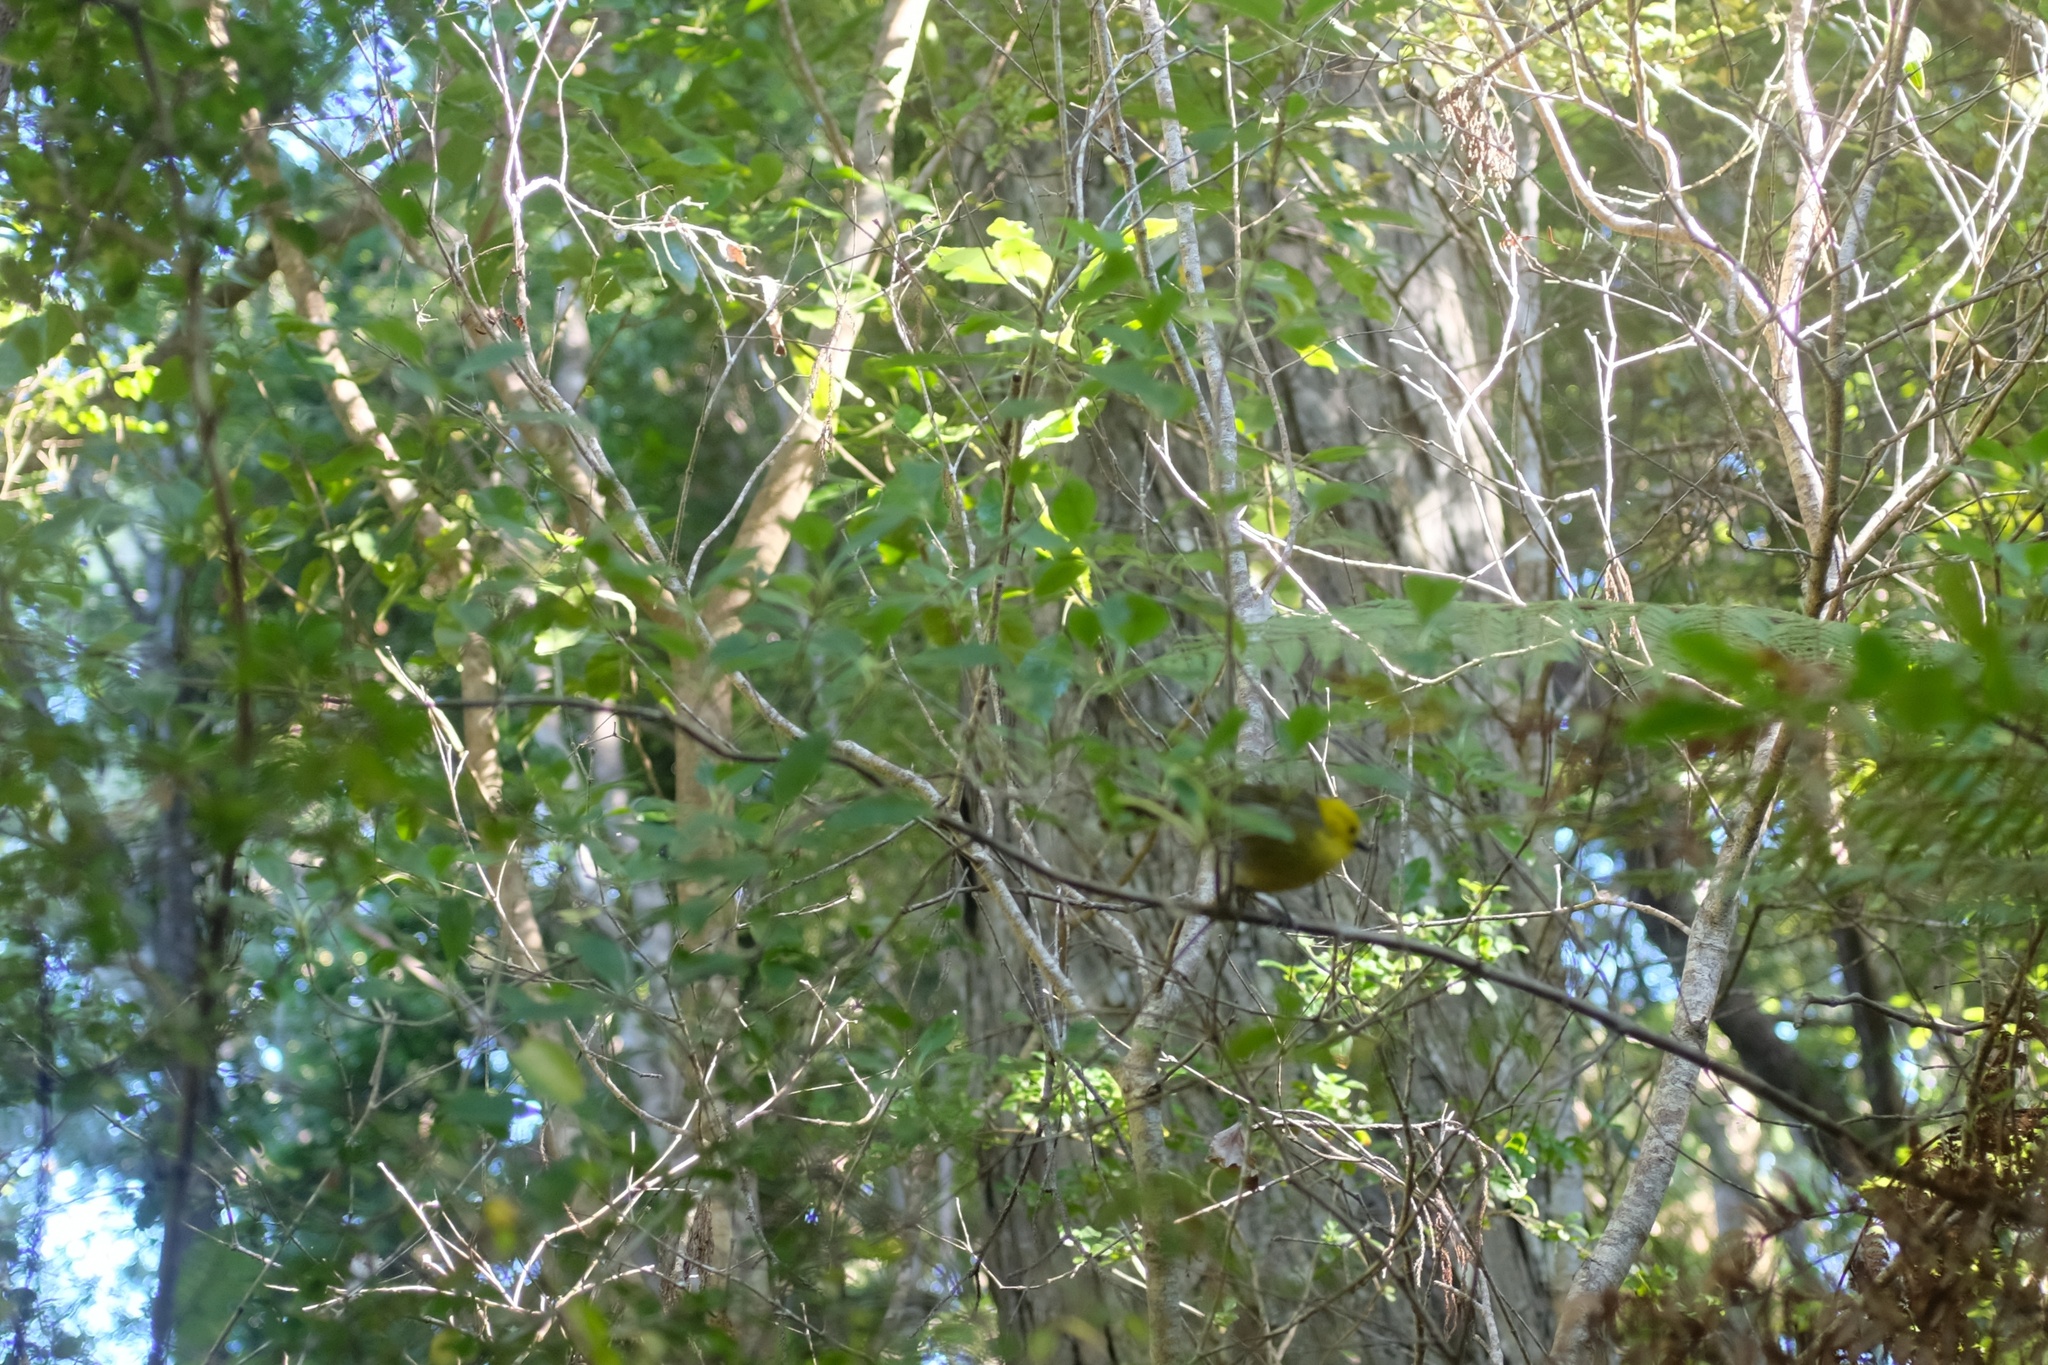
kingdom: Animalia
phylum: Chordata
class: Aves
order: Passeriformes
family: Acanthizidae
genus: Mohoua
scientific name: Mohoua ochrocephala
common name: Yellowhead
